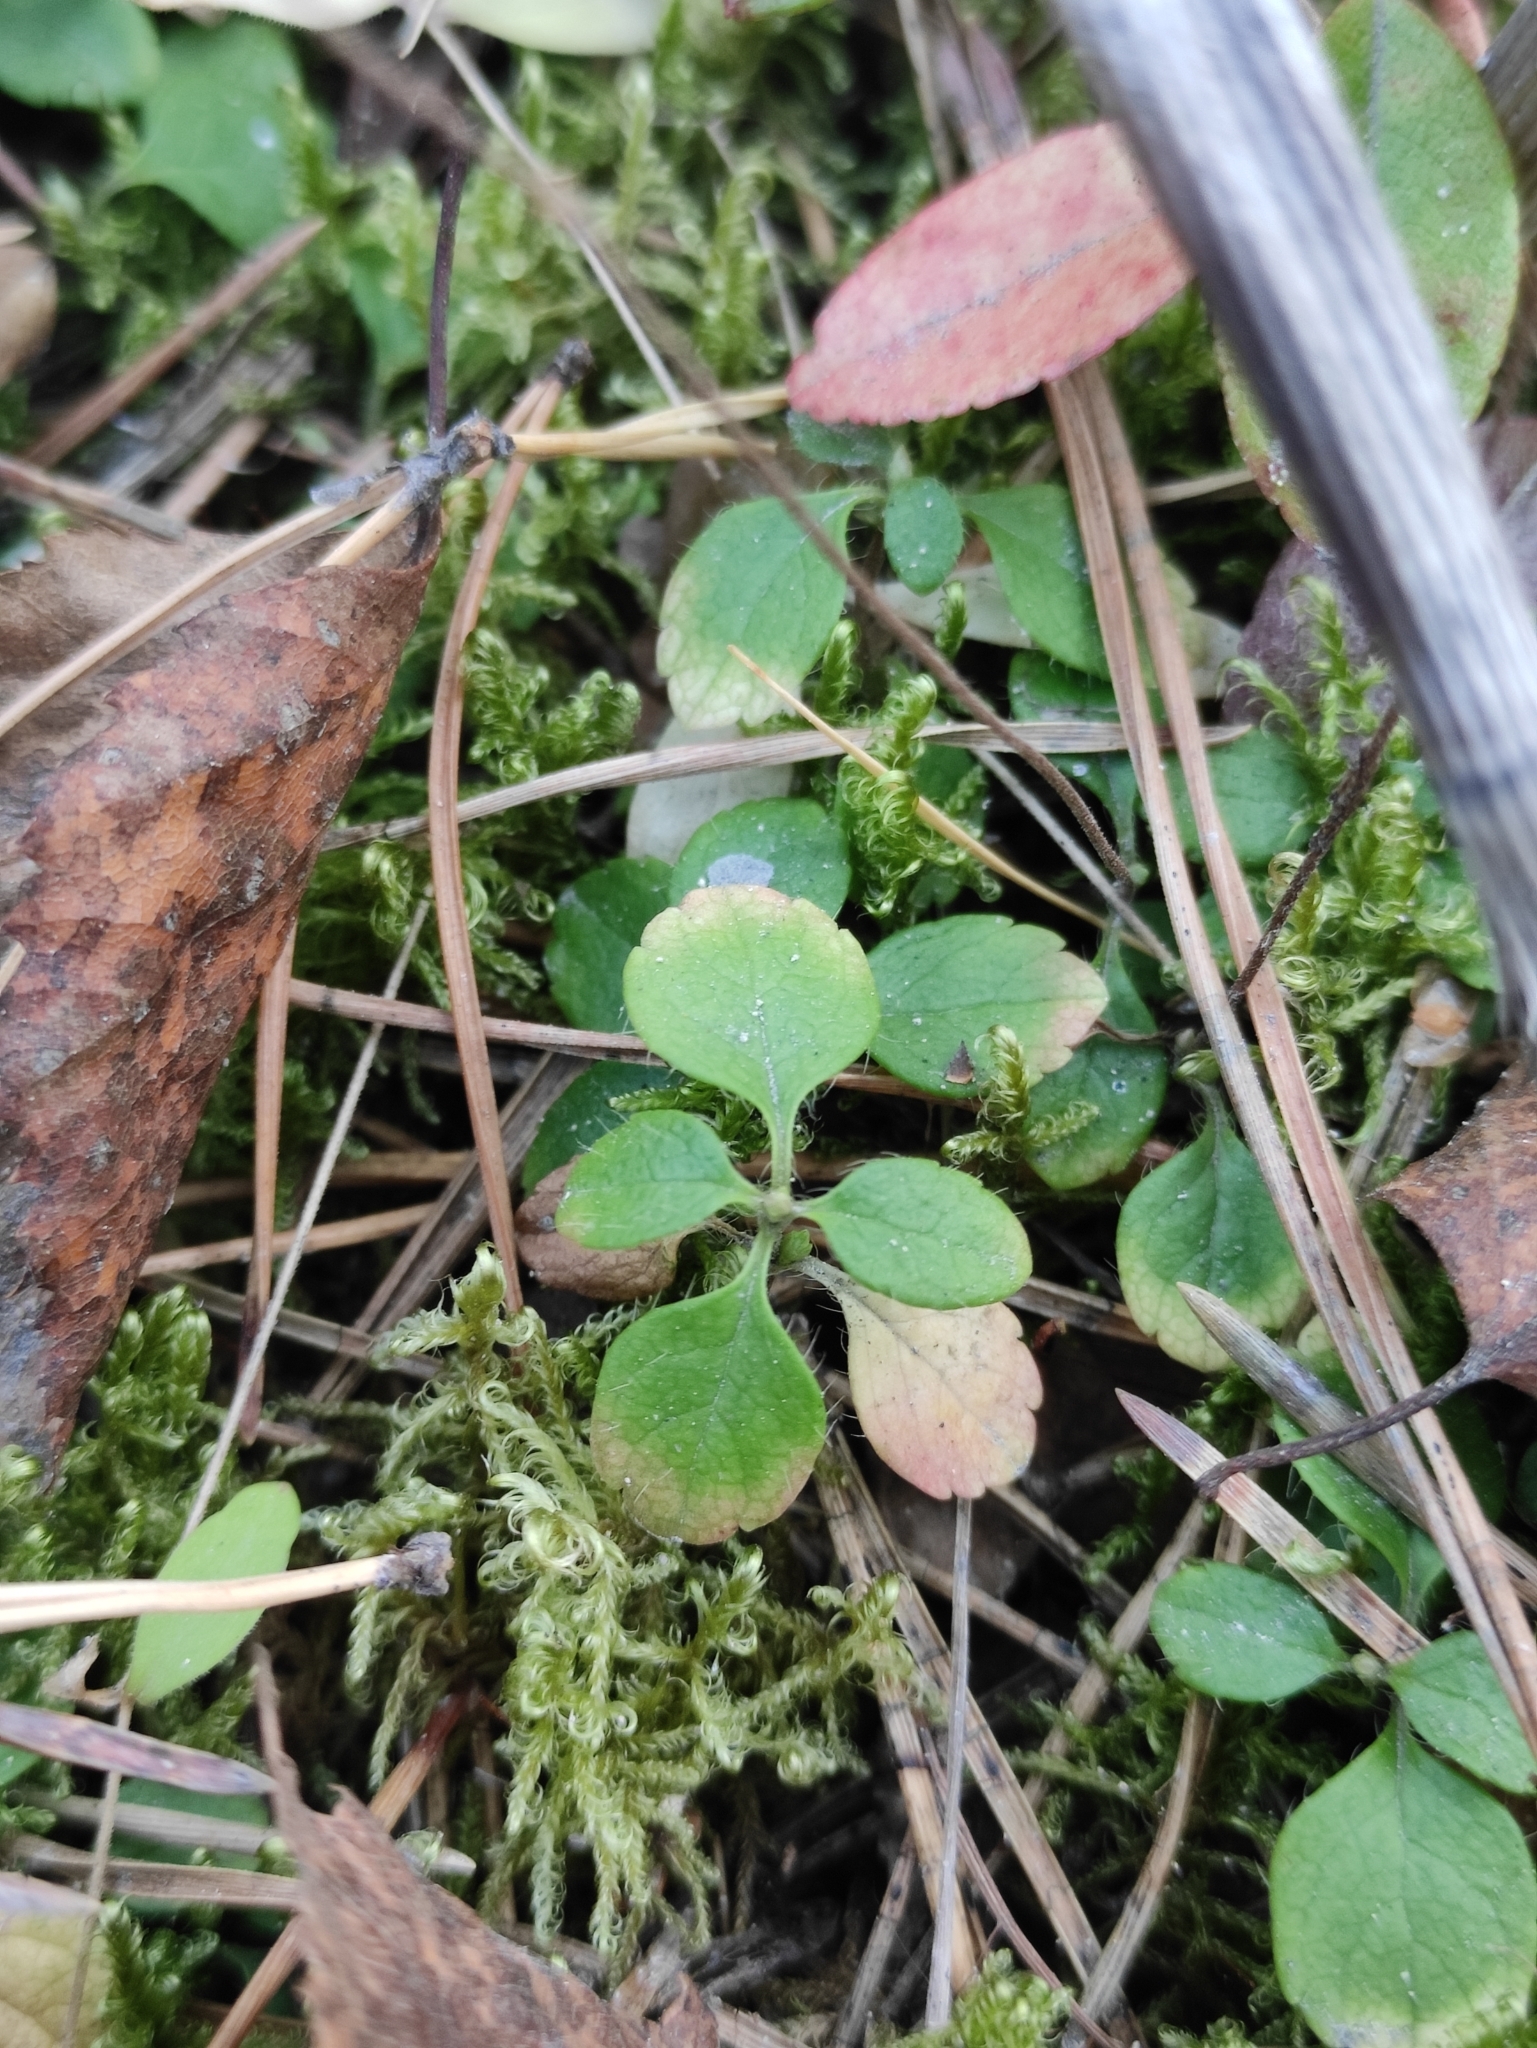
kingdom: Plantae
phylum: Tracheophyta
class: Magnoliopsida
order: Dipsacales
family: Caprifoliaceae
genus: Linnaea
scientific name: Linnaea borealis
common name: Twinflower
